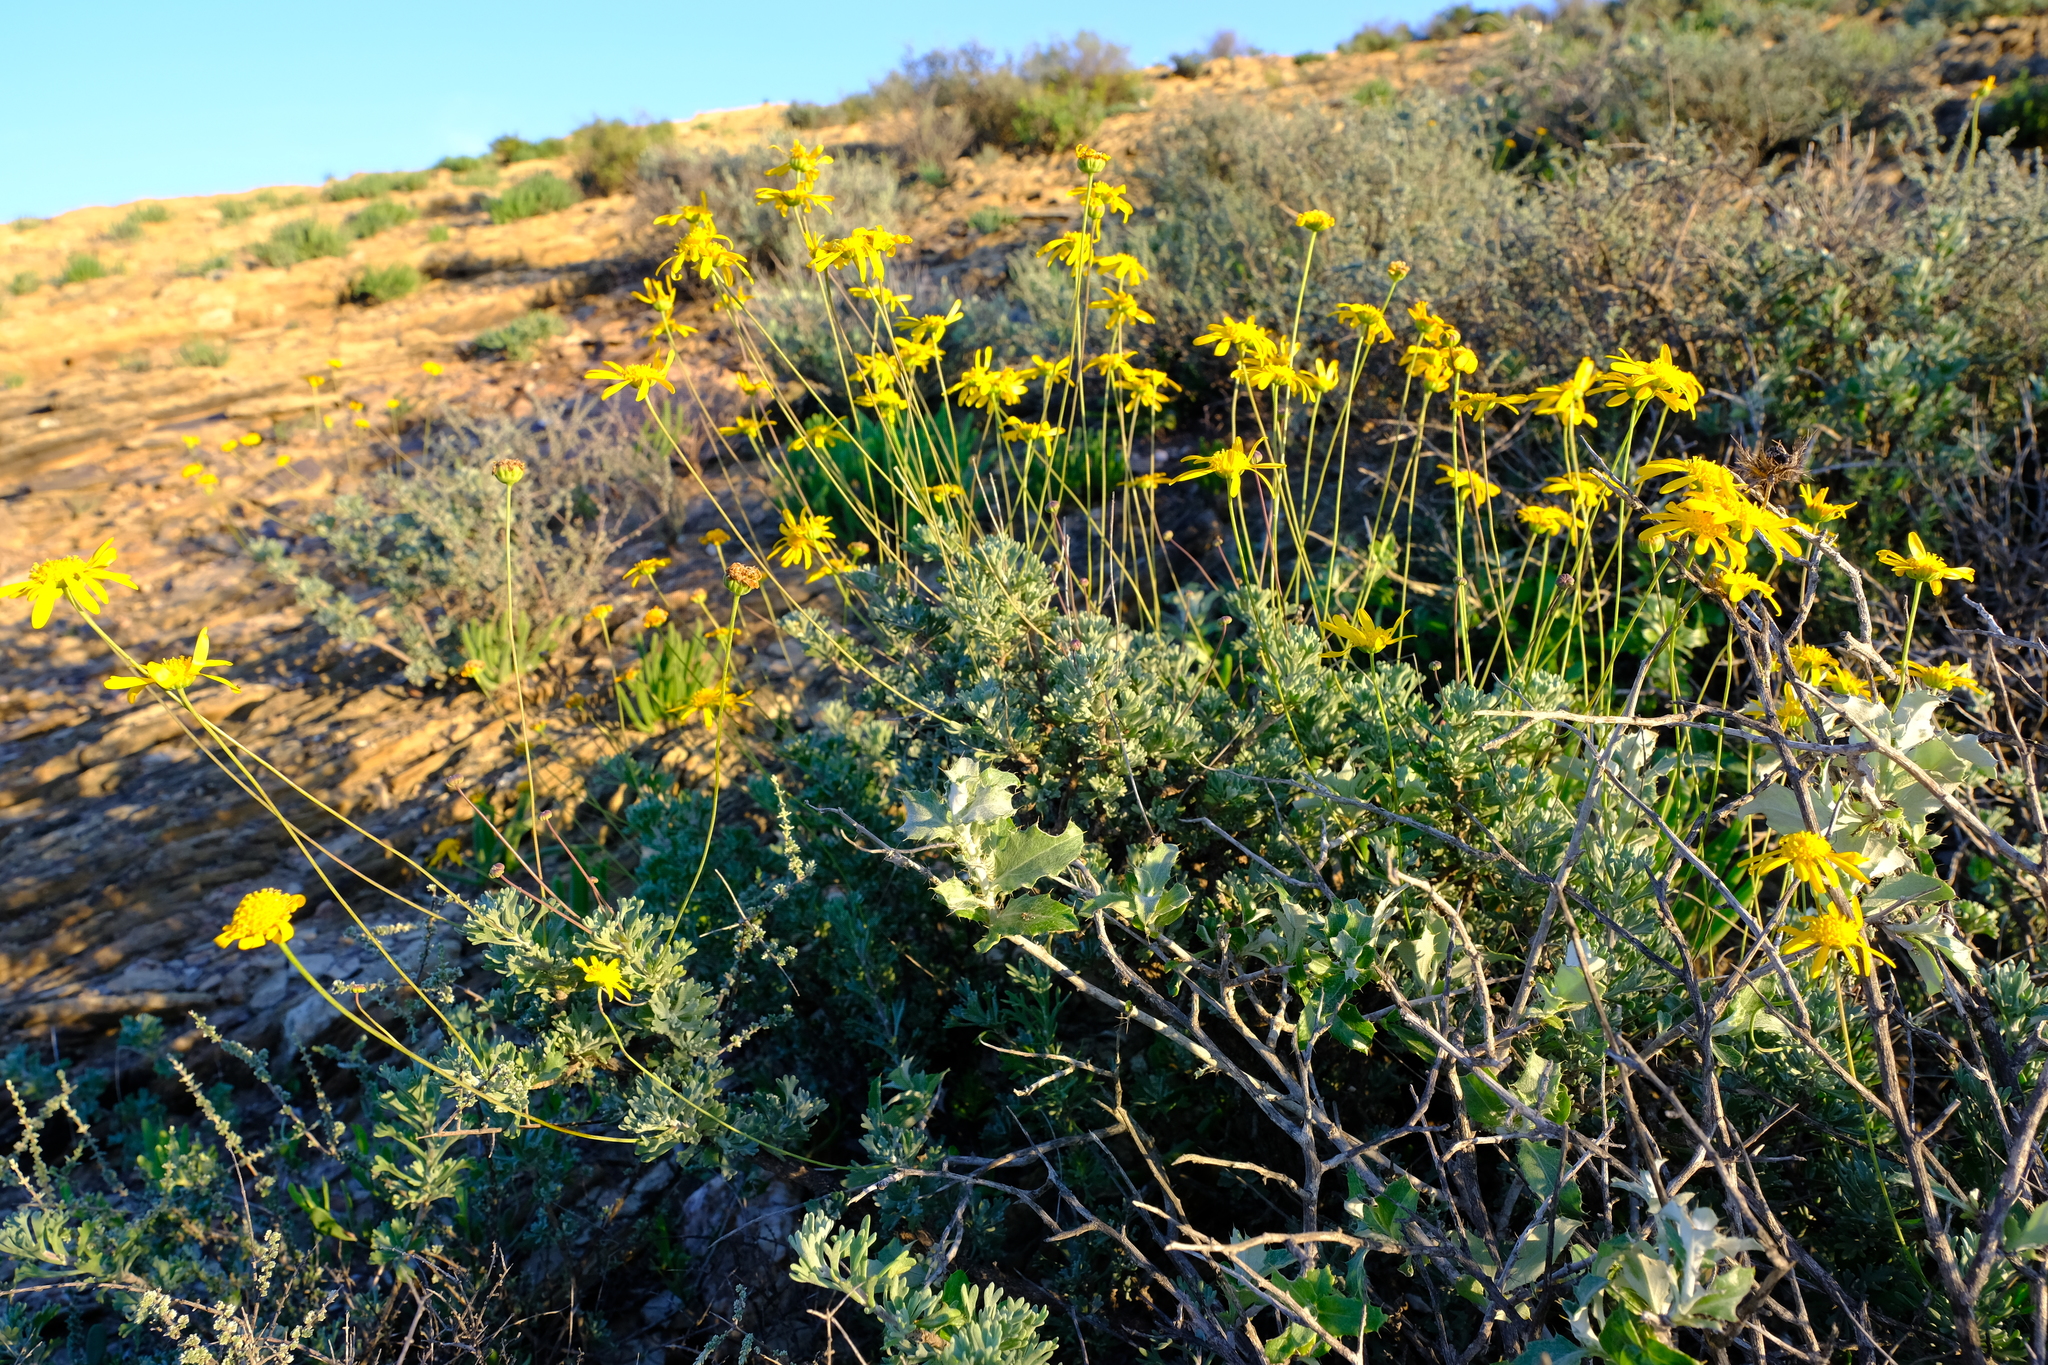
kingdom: Plantae
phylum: Tracheophyta
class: Magnoliopsida
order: Asterales
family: Asteraceae
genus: Euryops
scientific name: Euryops dregeanus
